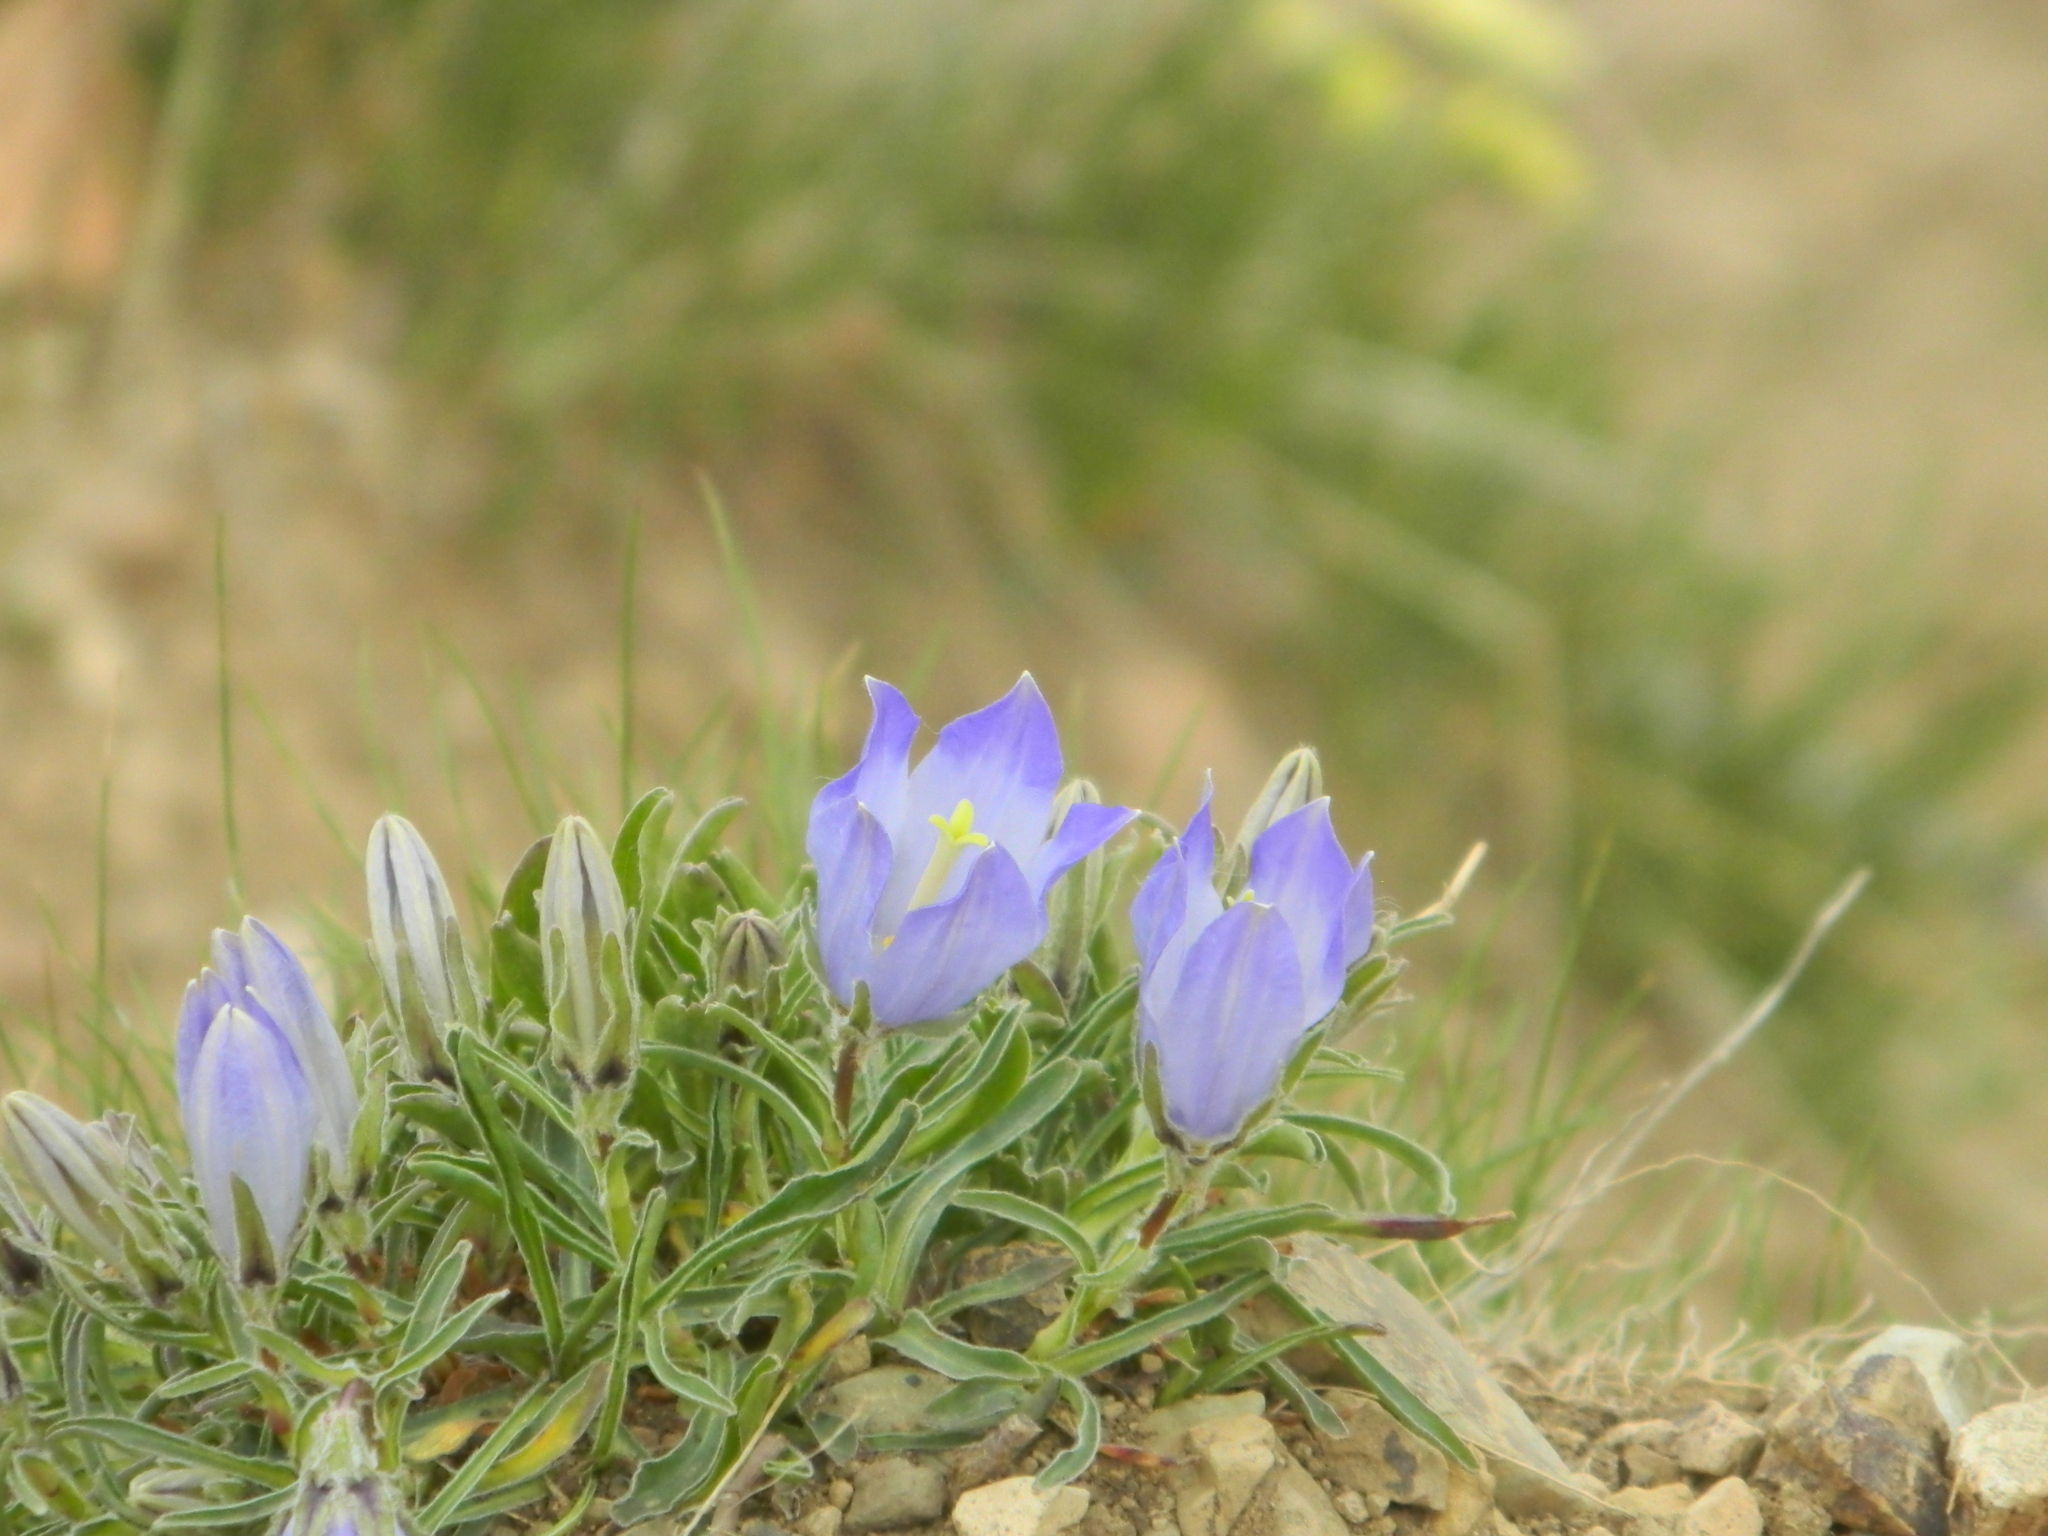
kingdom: Plantae
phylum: Tracheophyta
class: Magnoliopsida
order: Asterales
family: Campanulaceae
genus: Campanula
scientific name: Campanula tridentata
